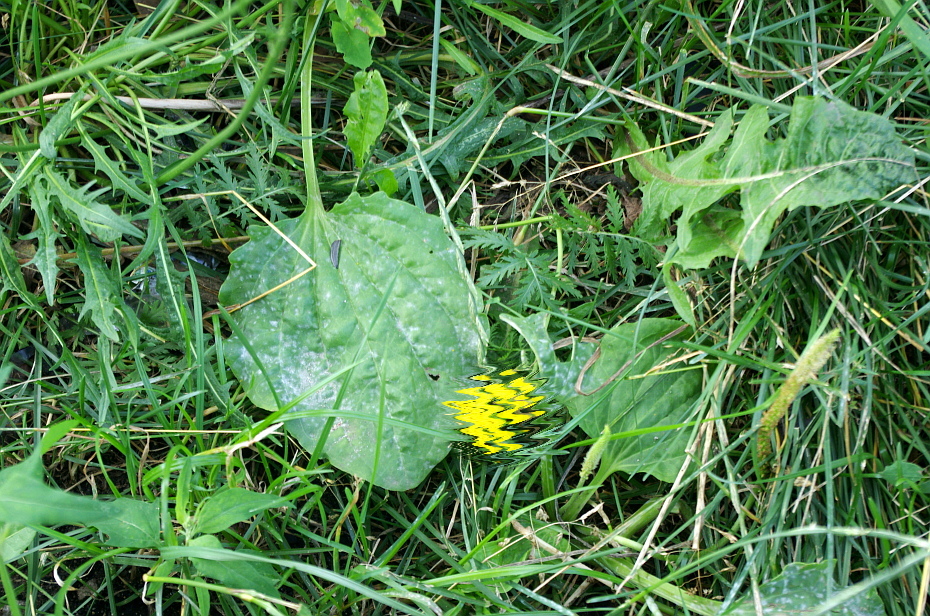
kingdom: Plantae
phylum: Tracheophyta
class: Magnoliopsida
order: Lamiales
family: Plantaginaceae
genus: Plantago
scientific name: Plantago major
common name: Common plantain
